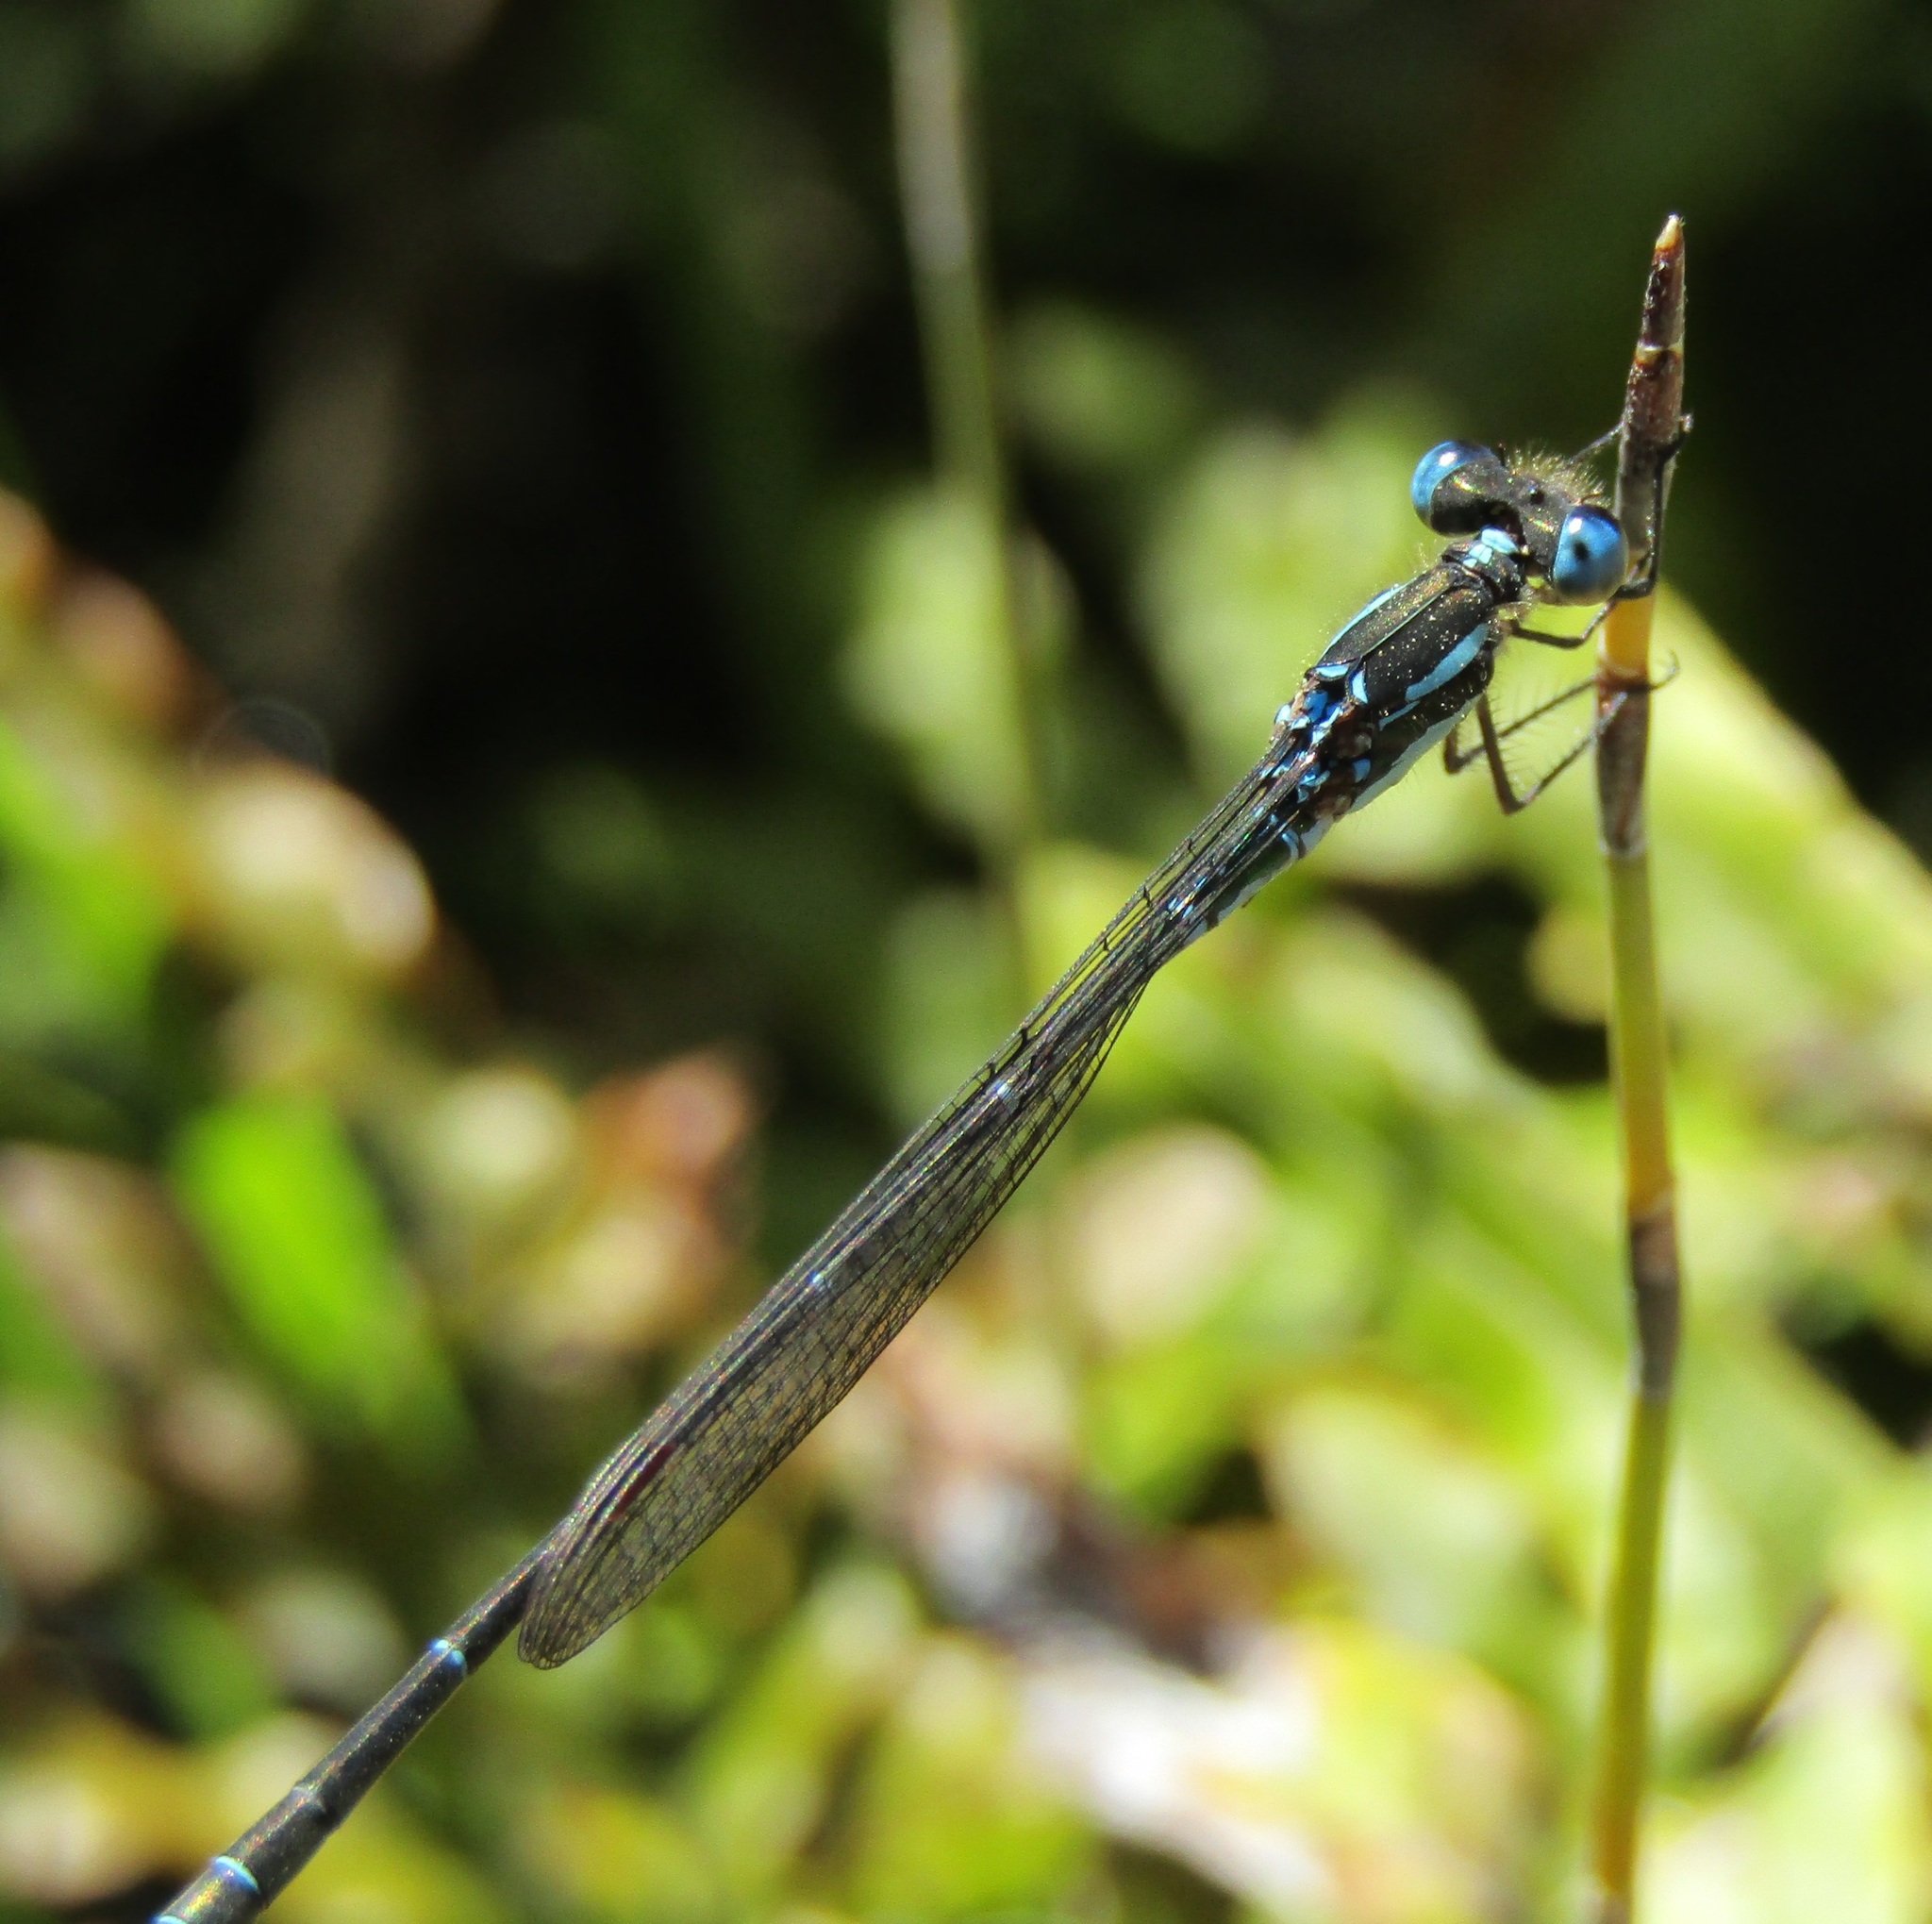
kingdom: Animalia
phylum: Arthropoda
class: Insecta
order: Odonata
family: Lestidae
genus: Austrolestes
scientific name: Austrolestes colensonis
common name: Blue damselfly
